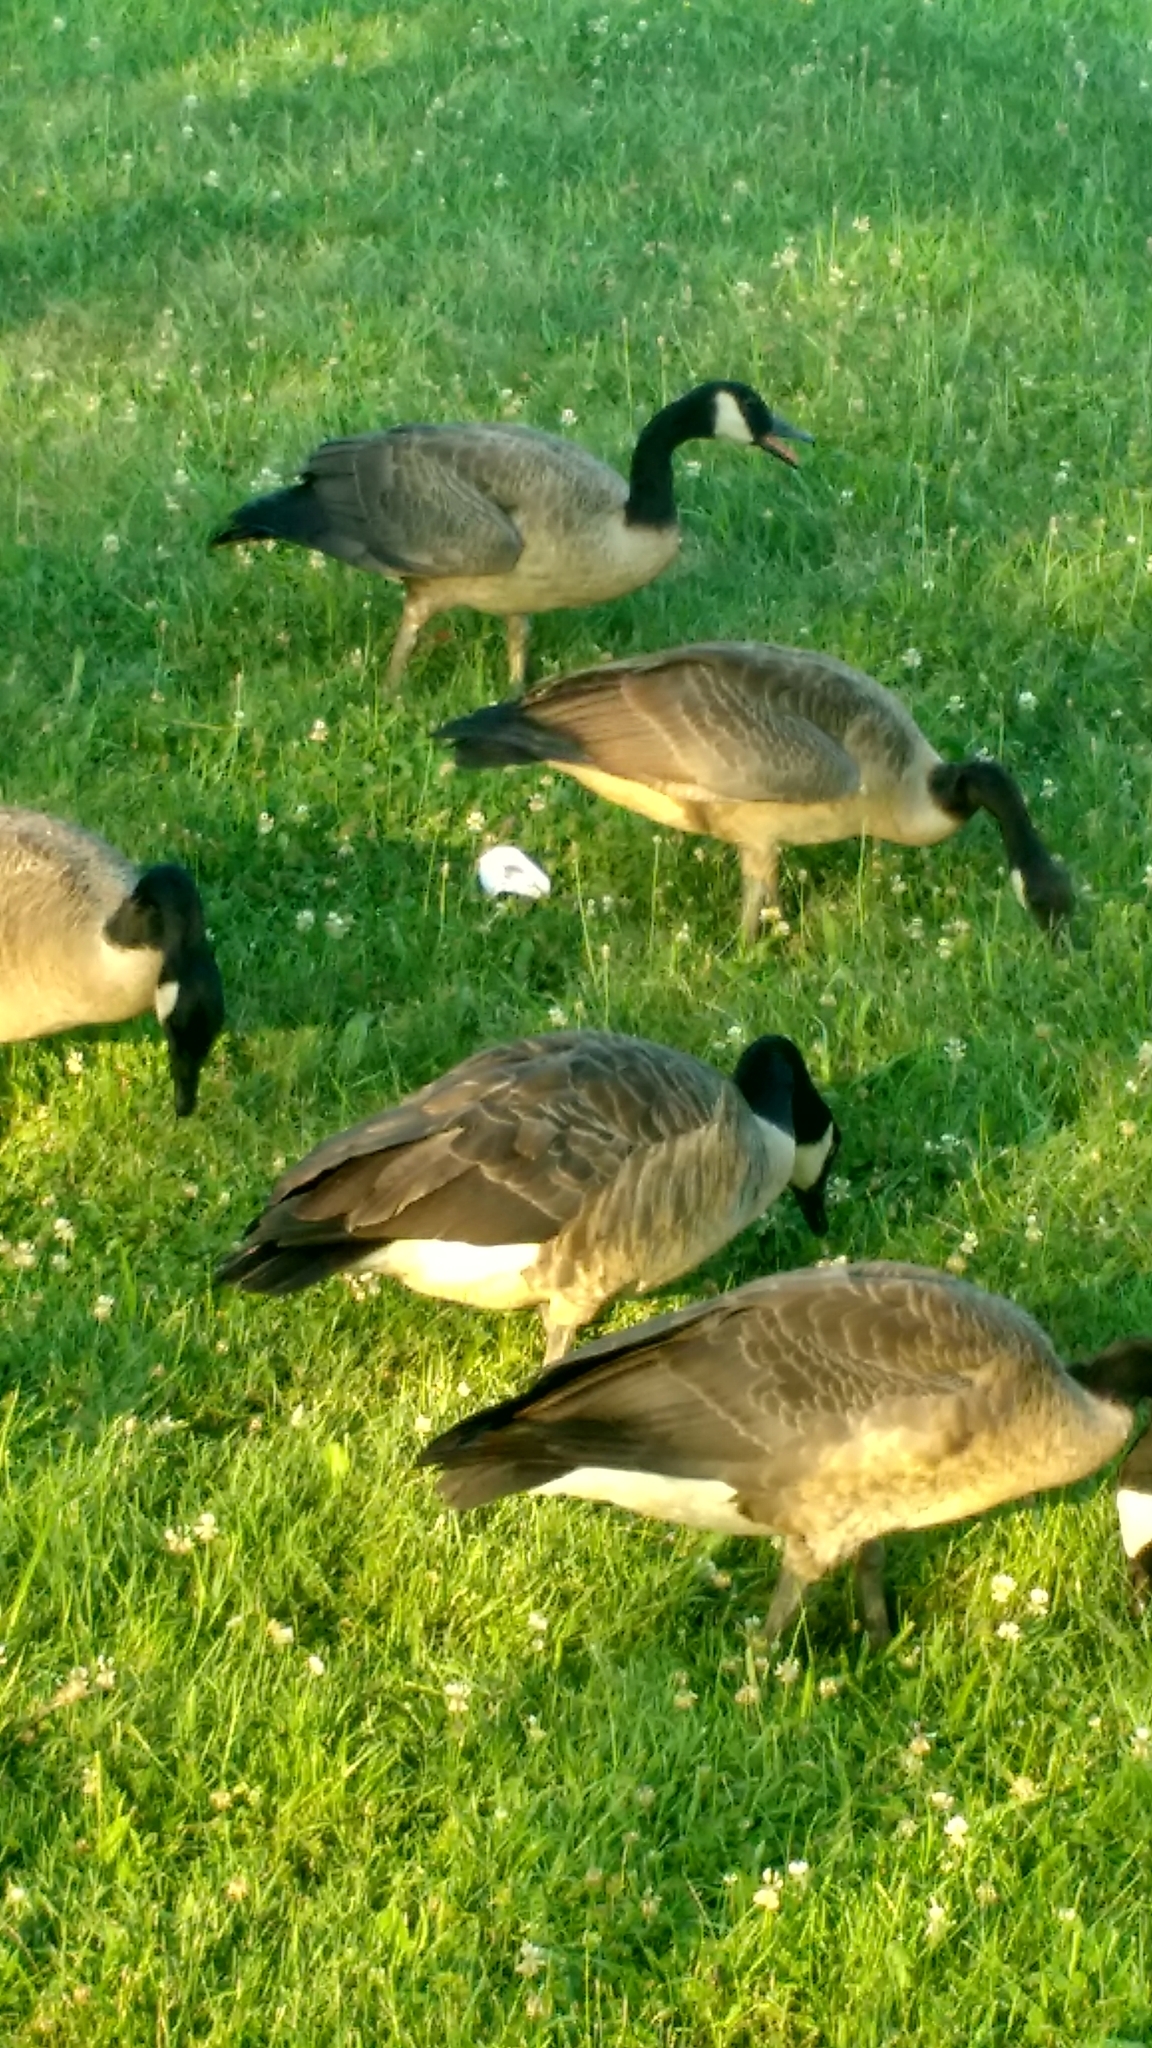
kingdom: Animalia
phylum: Chordata
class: Aves
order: Anseriformes
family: Anatidae
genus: Branta
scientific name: Branta canadensis
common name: Canada goose
